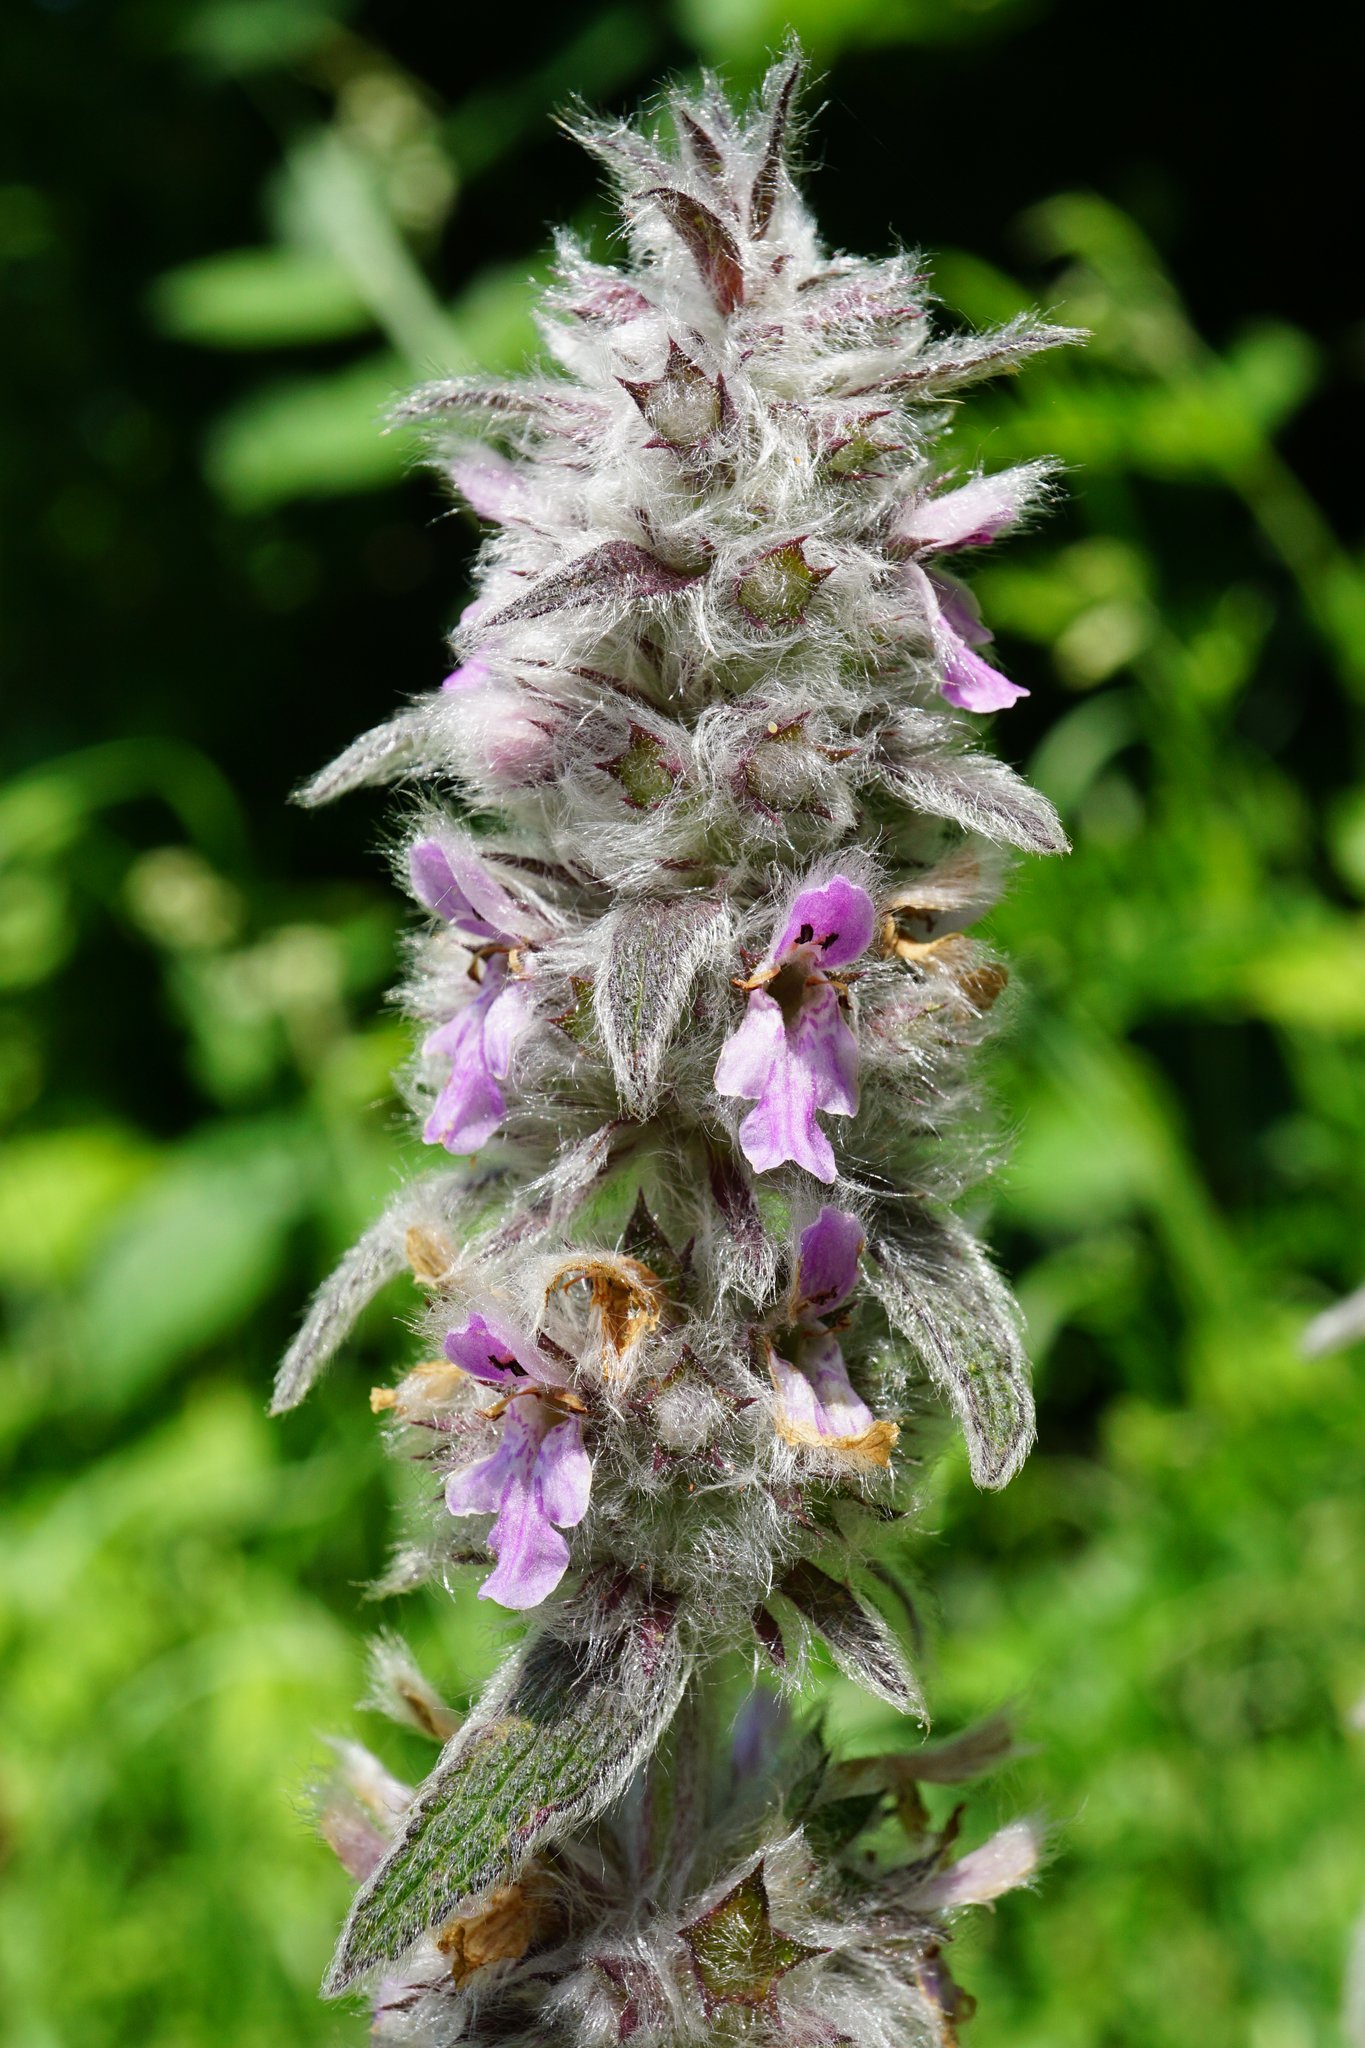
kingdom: Plantae
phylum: Tracheophyta
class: Magnoliopsida
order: Lamiales
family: Lamiaceae
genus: Stachys
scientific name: Stachys germanica
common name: Downy woundwort
